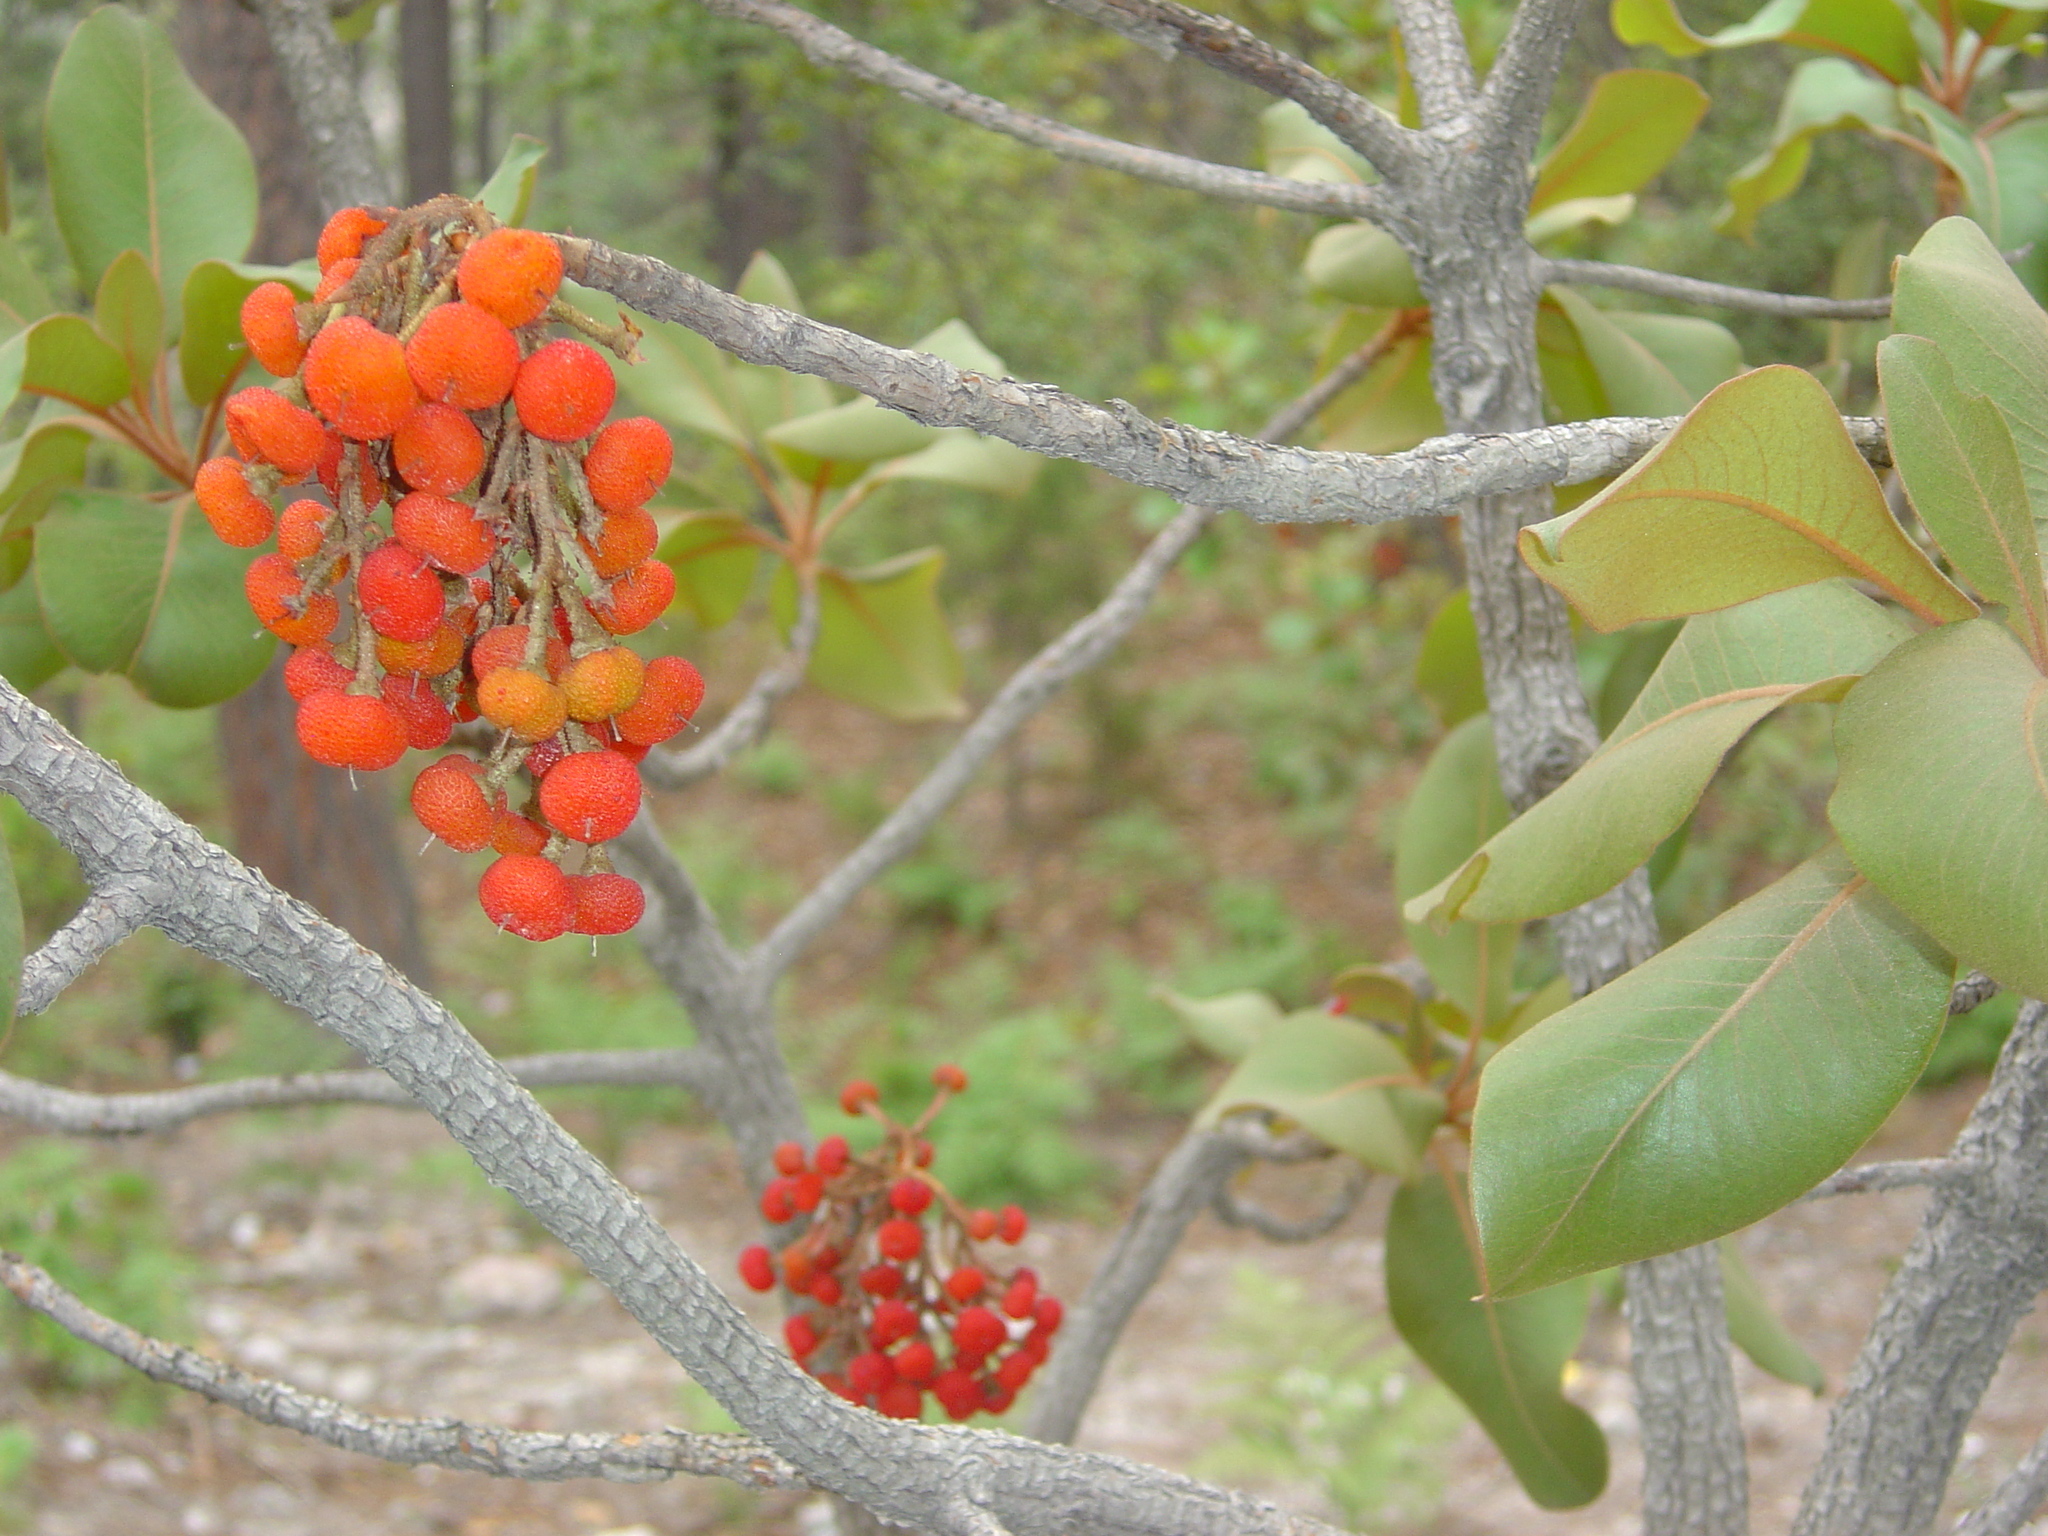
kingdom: Plantae
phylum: Tracheophyta
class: Magnoliopsida
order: Ericales
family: Ericaceae
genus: Arbutus
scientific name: Arbutus madrensis
